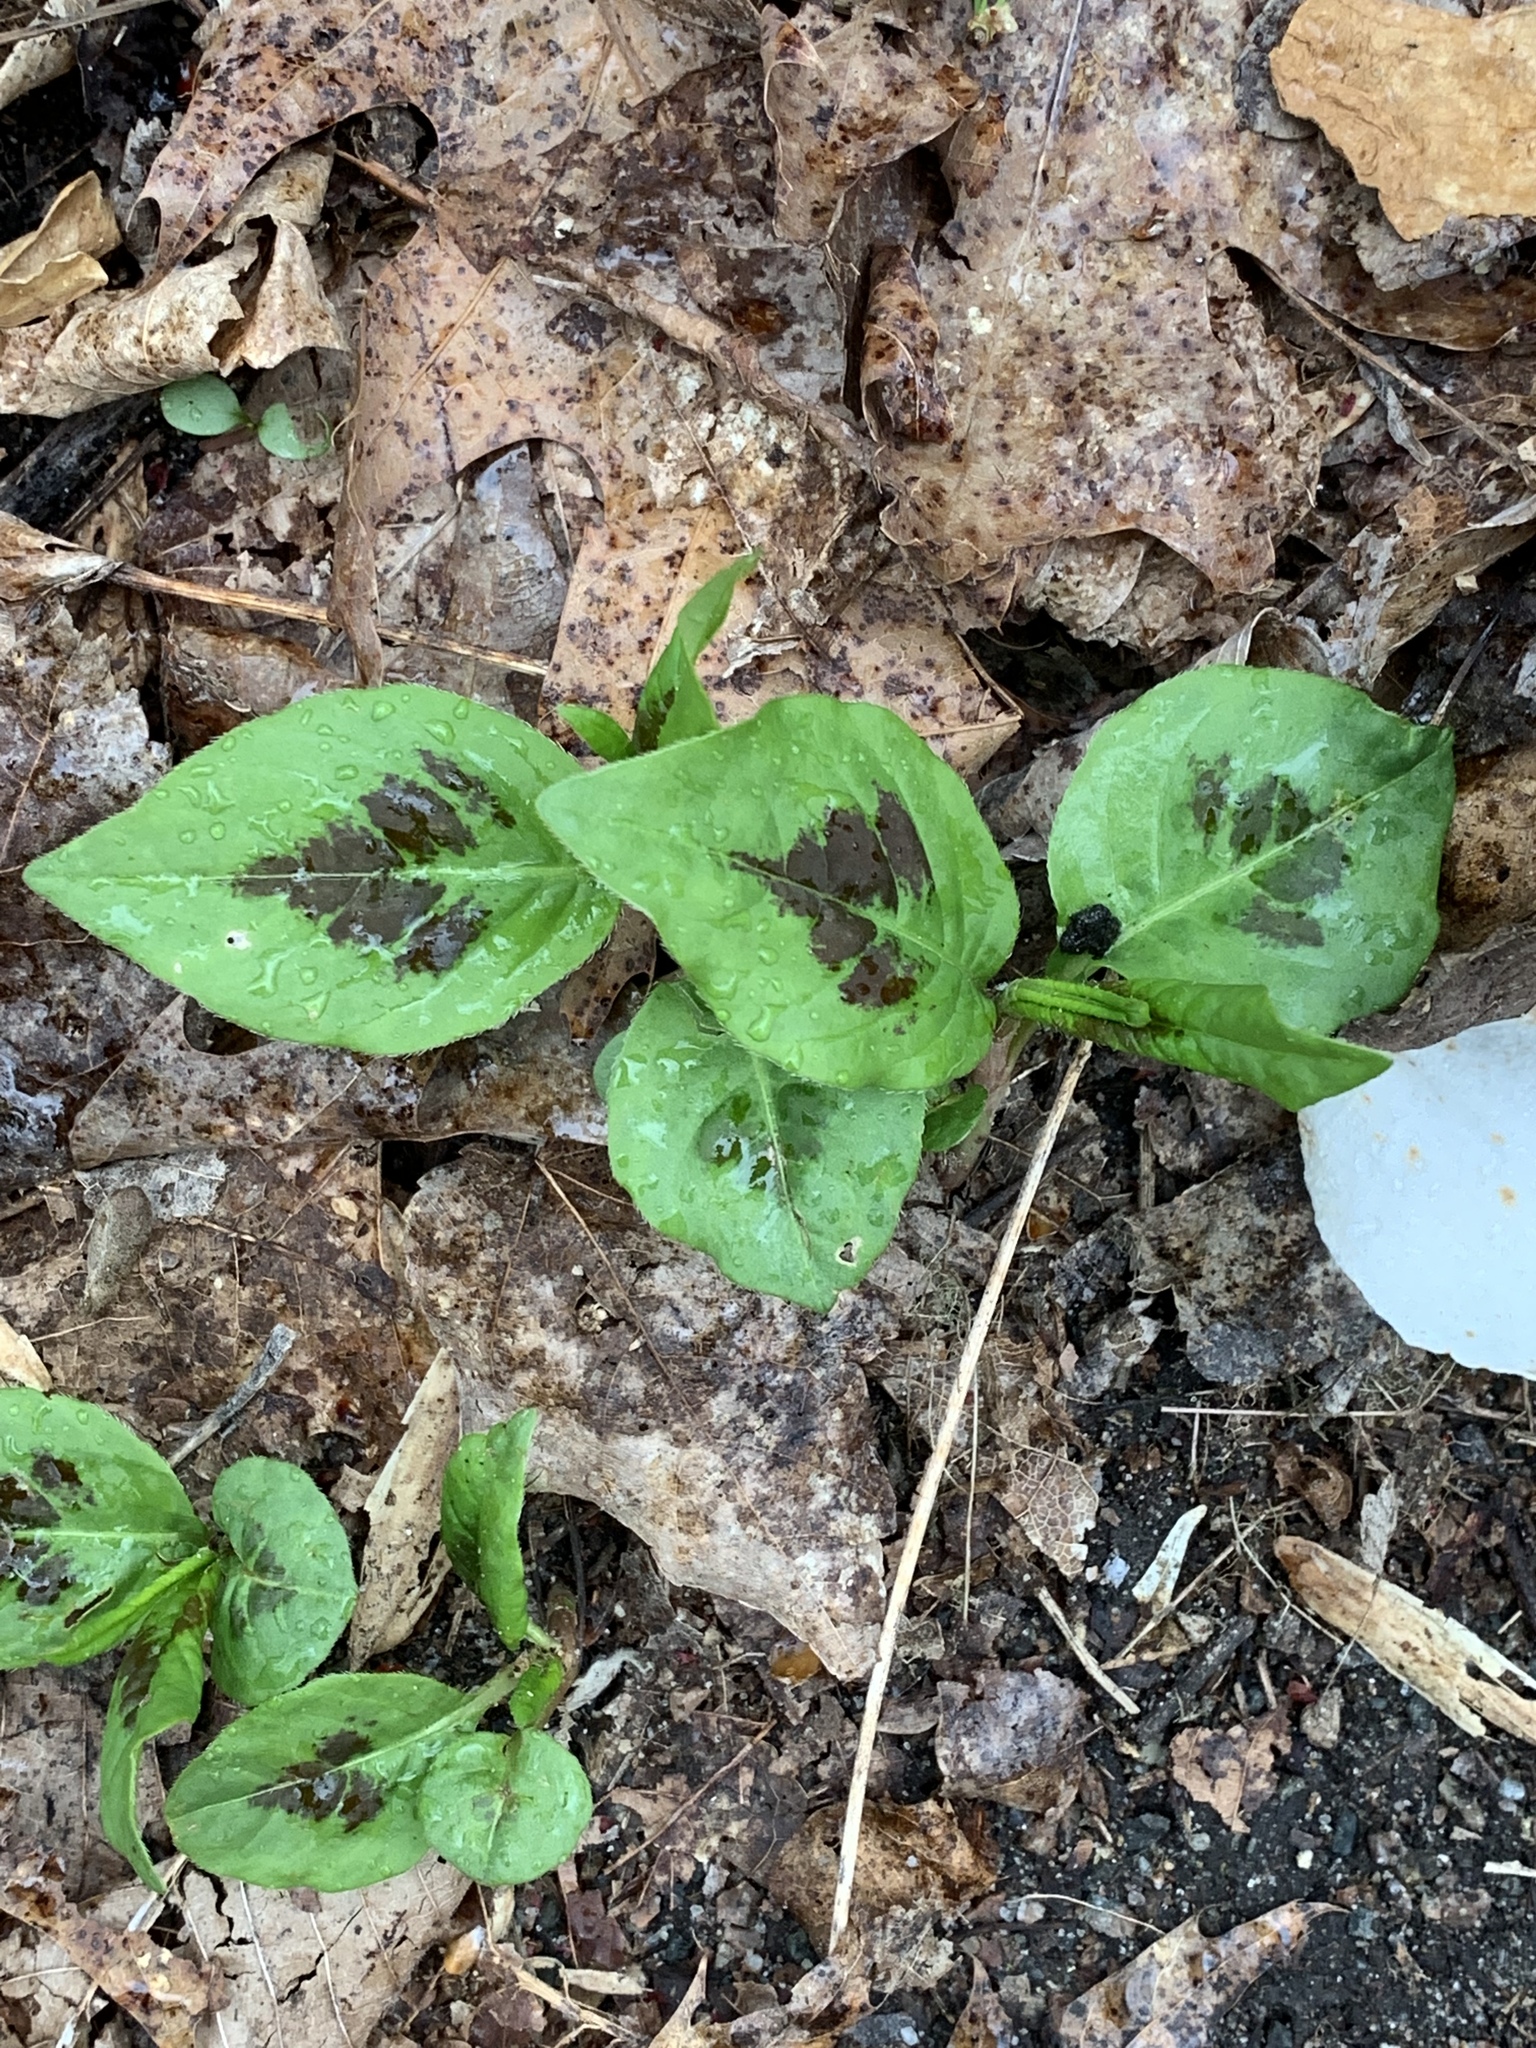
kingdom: Plantae
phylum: Tracheophyta
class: Magnoliopsida
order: Caryophyllales
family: Polygonaceae
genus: Persicaria
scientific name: Persicaria virginiana
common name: Jumpseed
